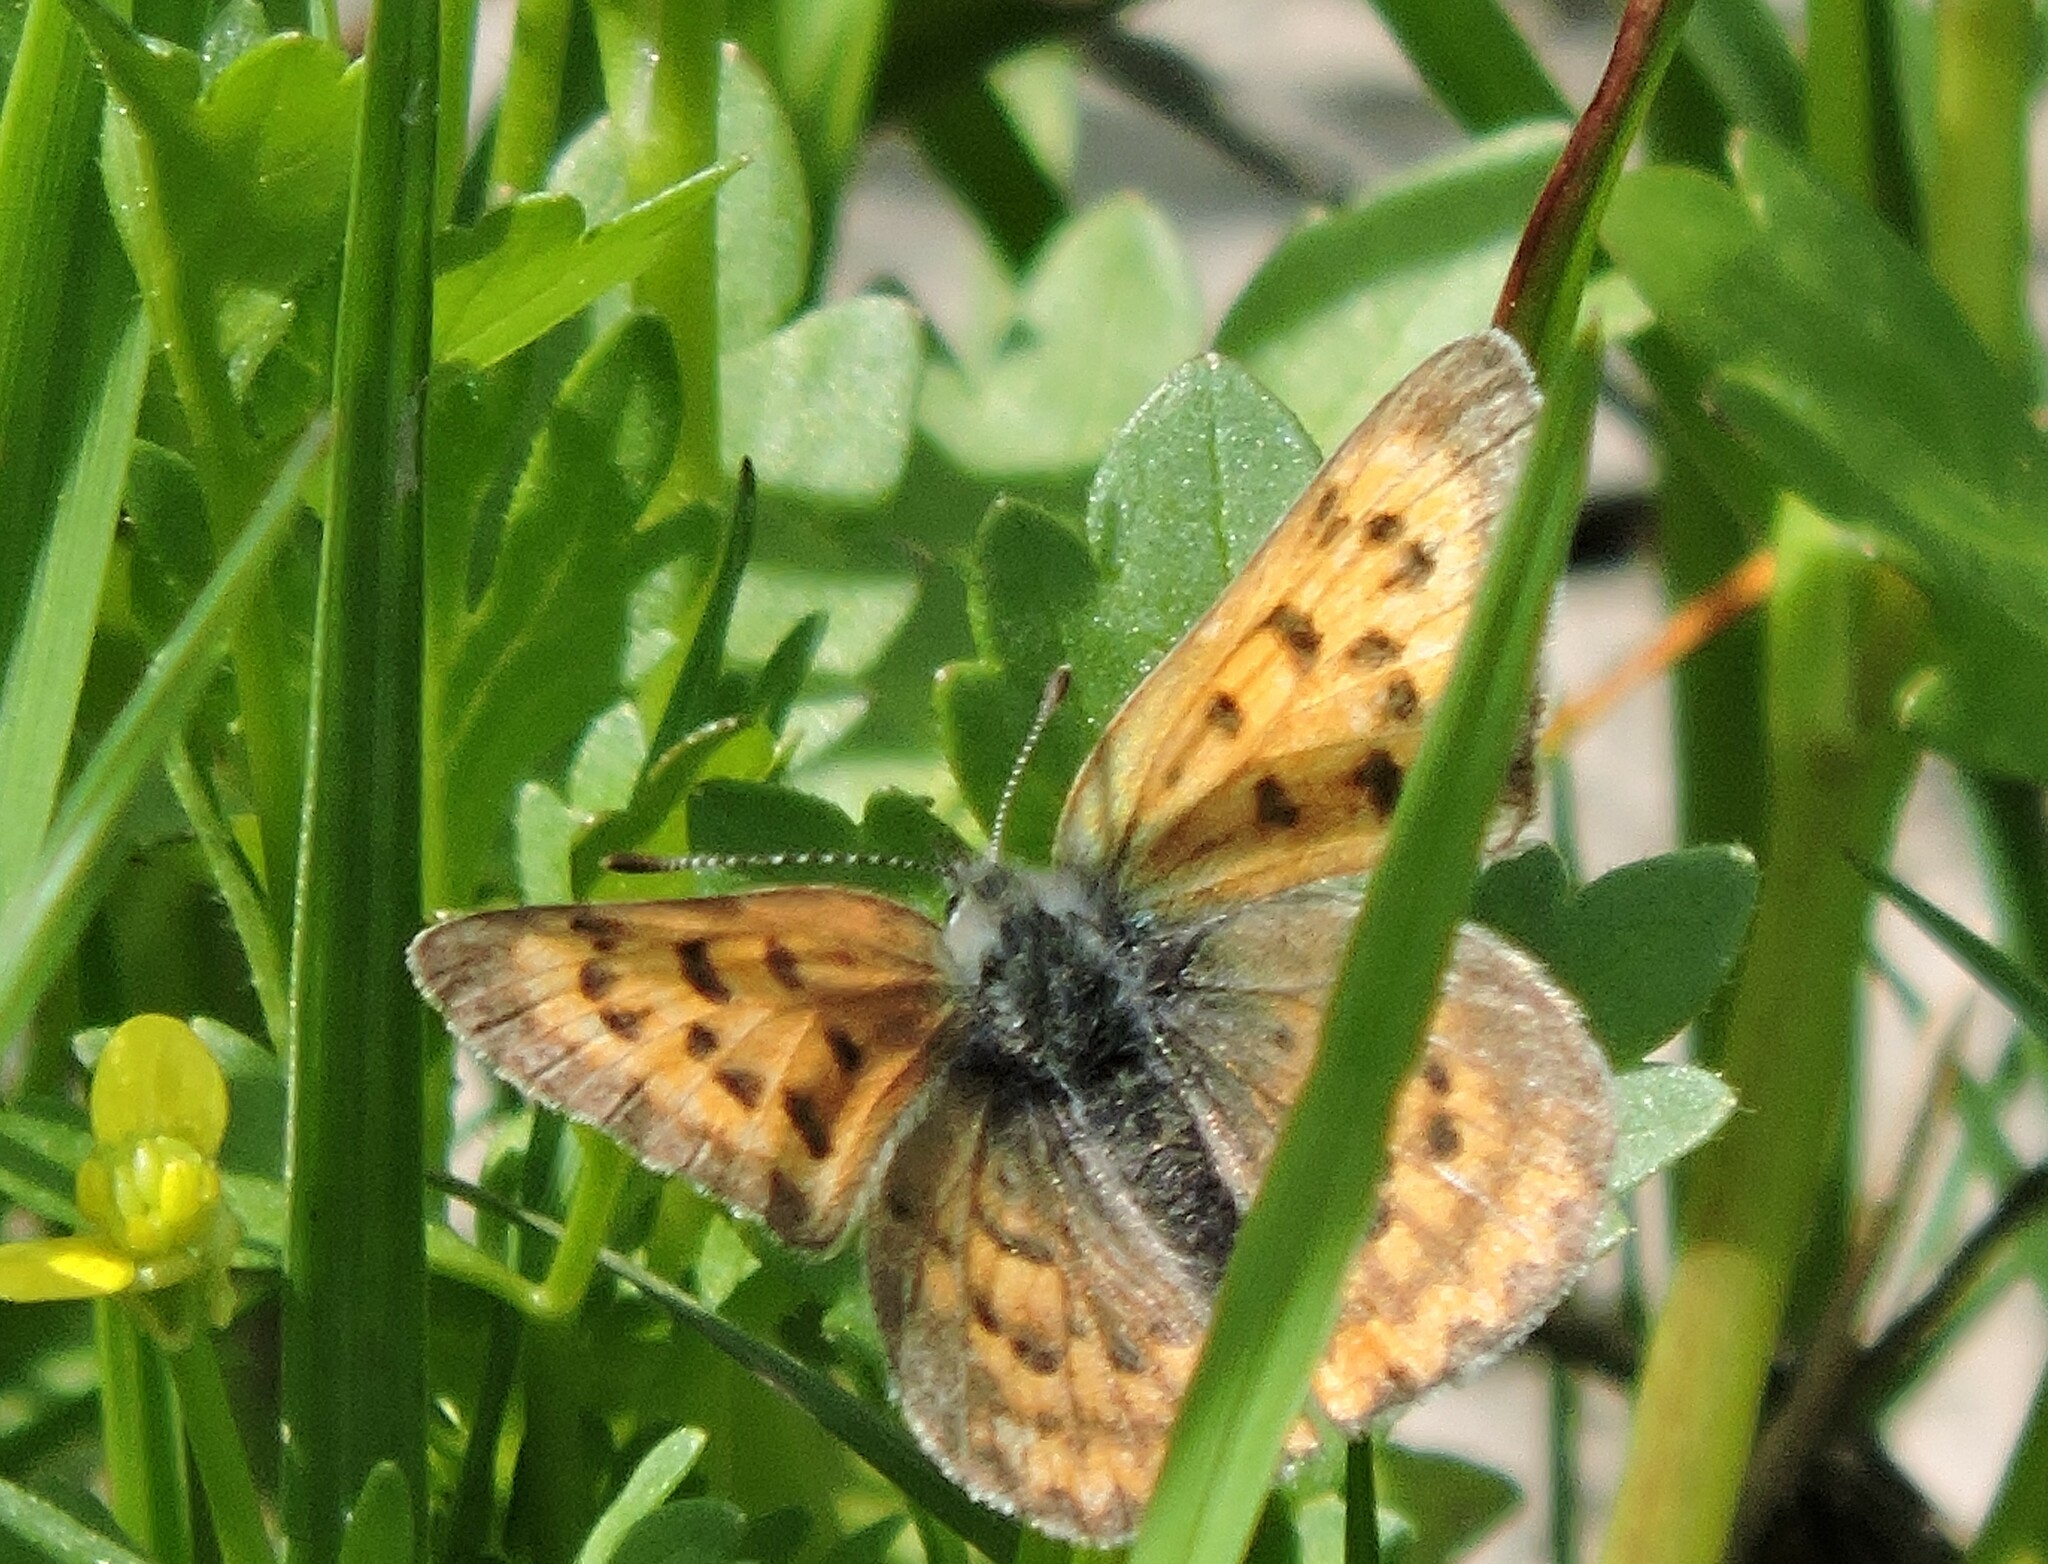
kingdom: Animalia
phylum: Arthropoda
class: Insecta
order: Lepidoptera
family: Lycaenidae
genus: Tharsalea
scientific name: Tharsalea helloides
